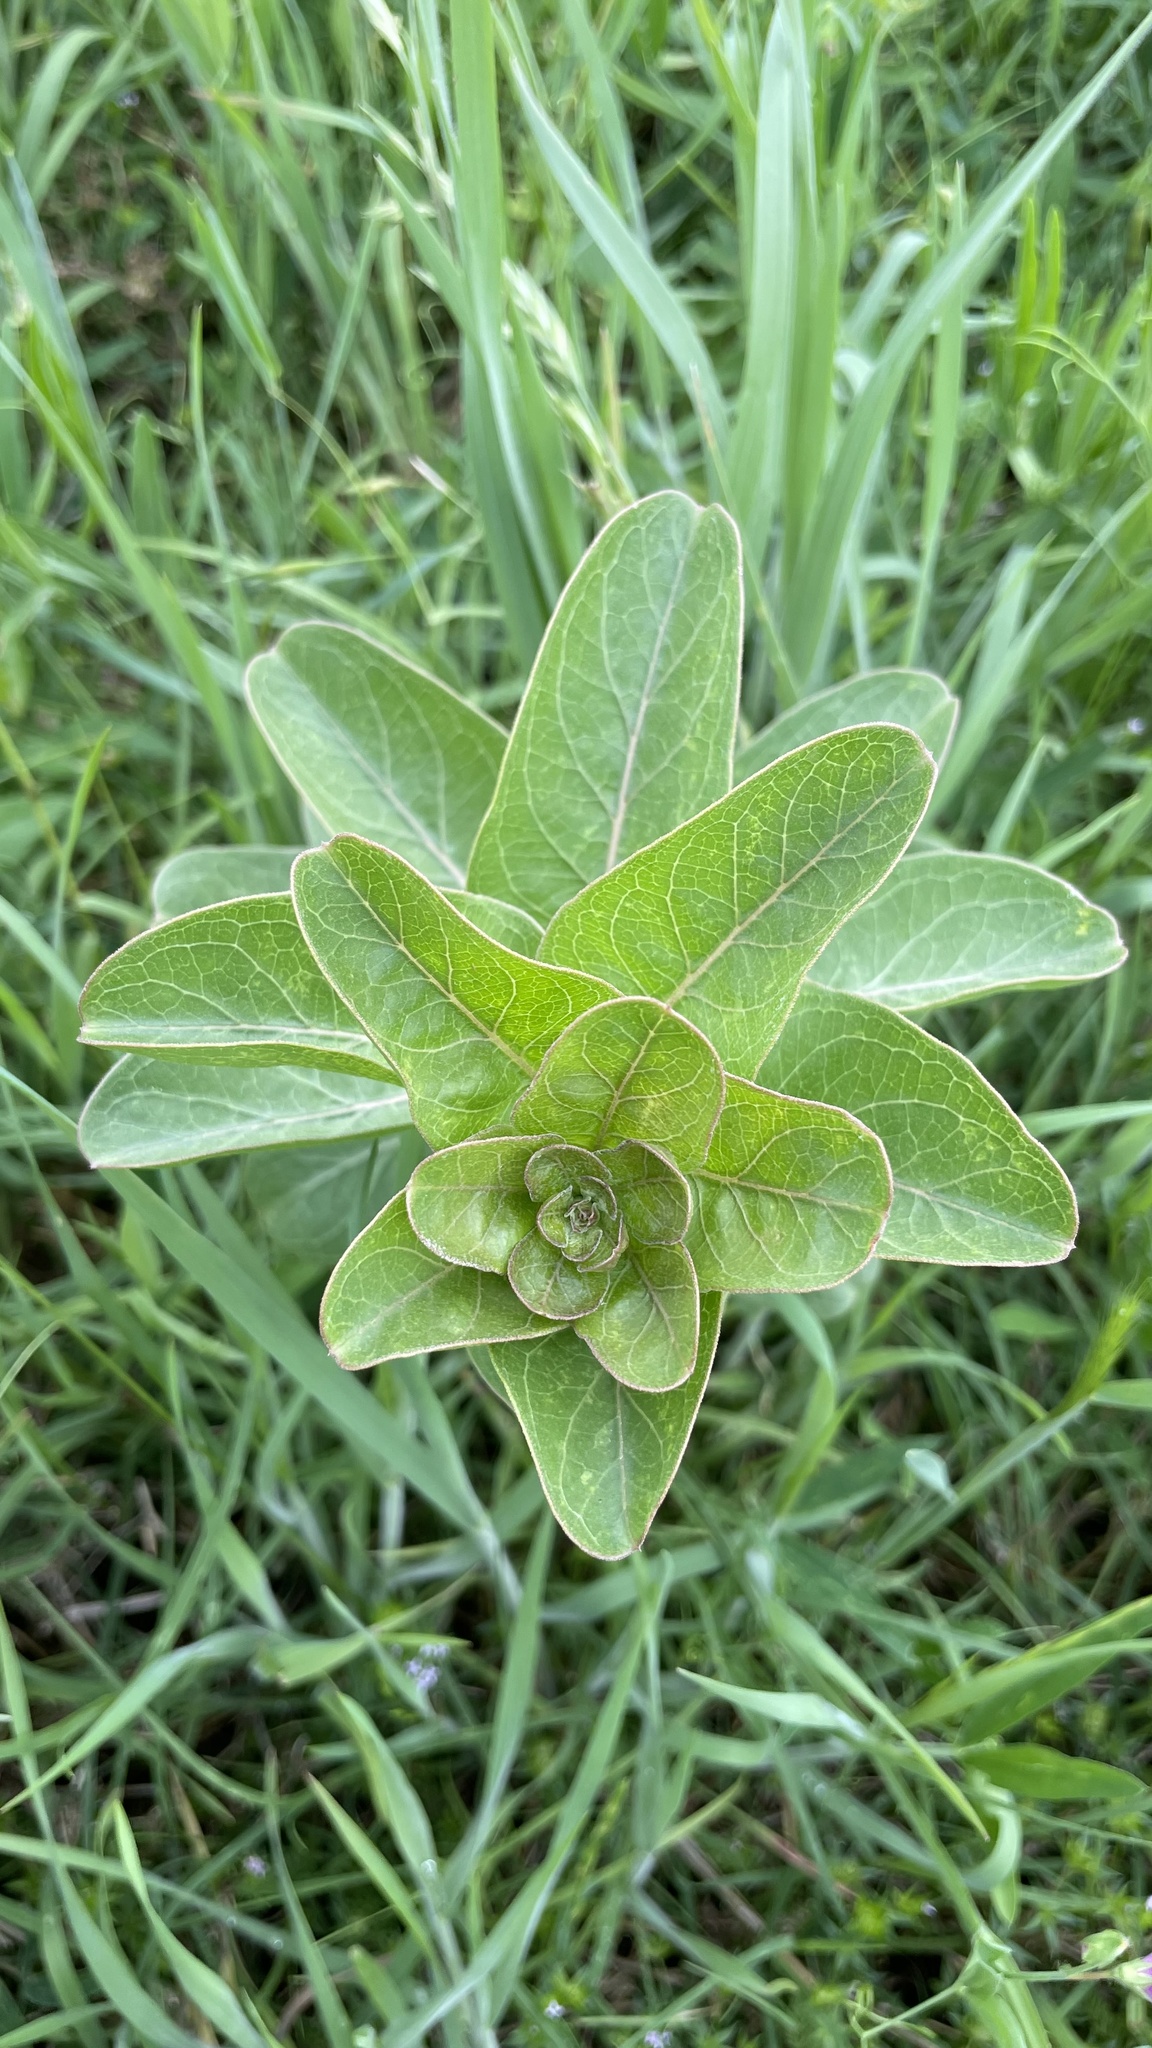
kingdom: Plantae
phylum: Tracheophyta
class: Magnoliopsida
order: Gentianales
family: Apocynaceae
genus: Asclepias
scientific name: Asclepias viridis
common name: Antelope-horns
